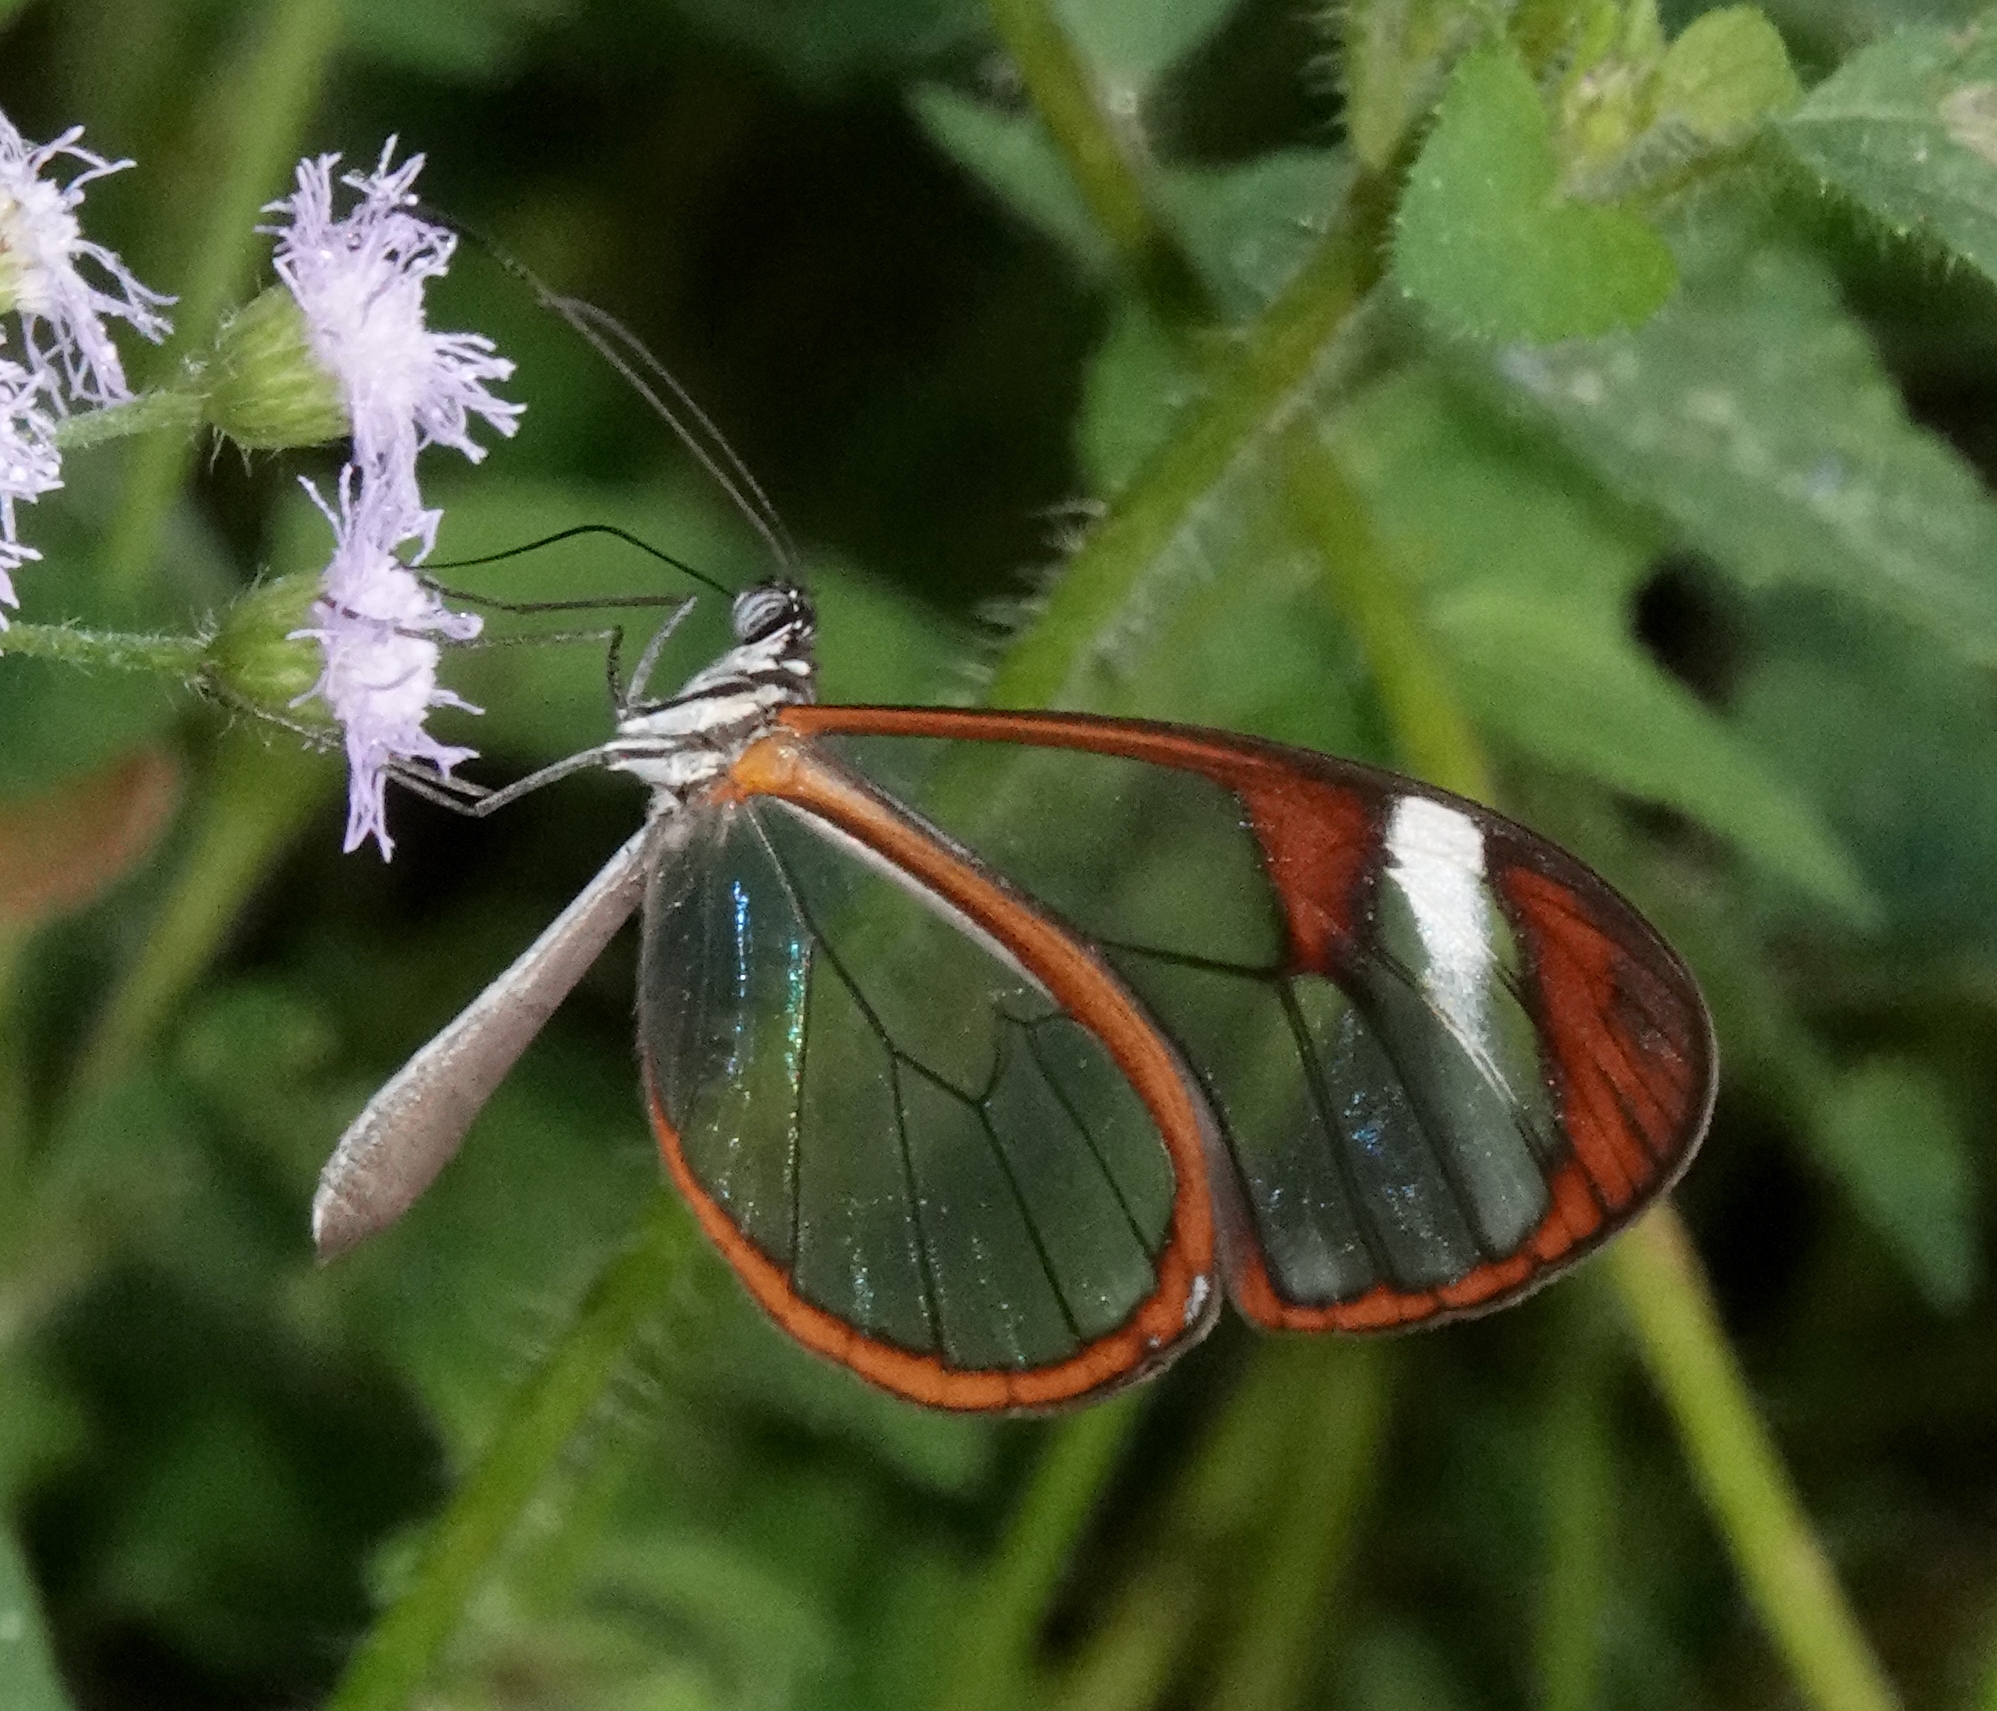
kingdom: Animalia
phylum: Arthropoda
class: Insecta
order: Lepidoptera
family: Nymphalidae
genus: Pteronymia
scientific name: Pteronymia cotytto
